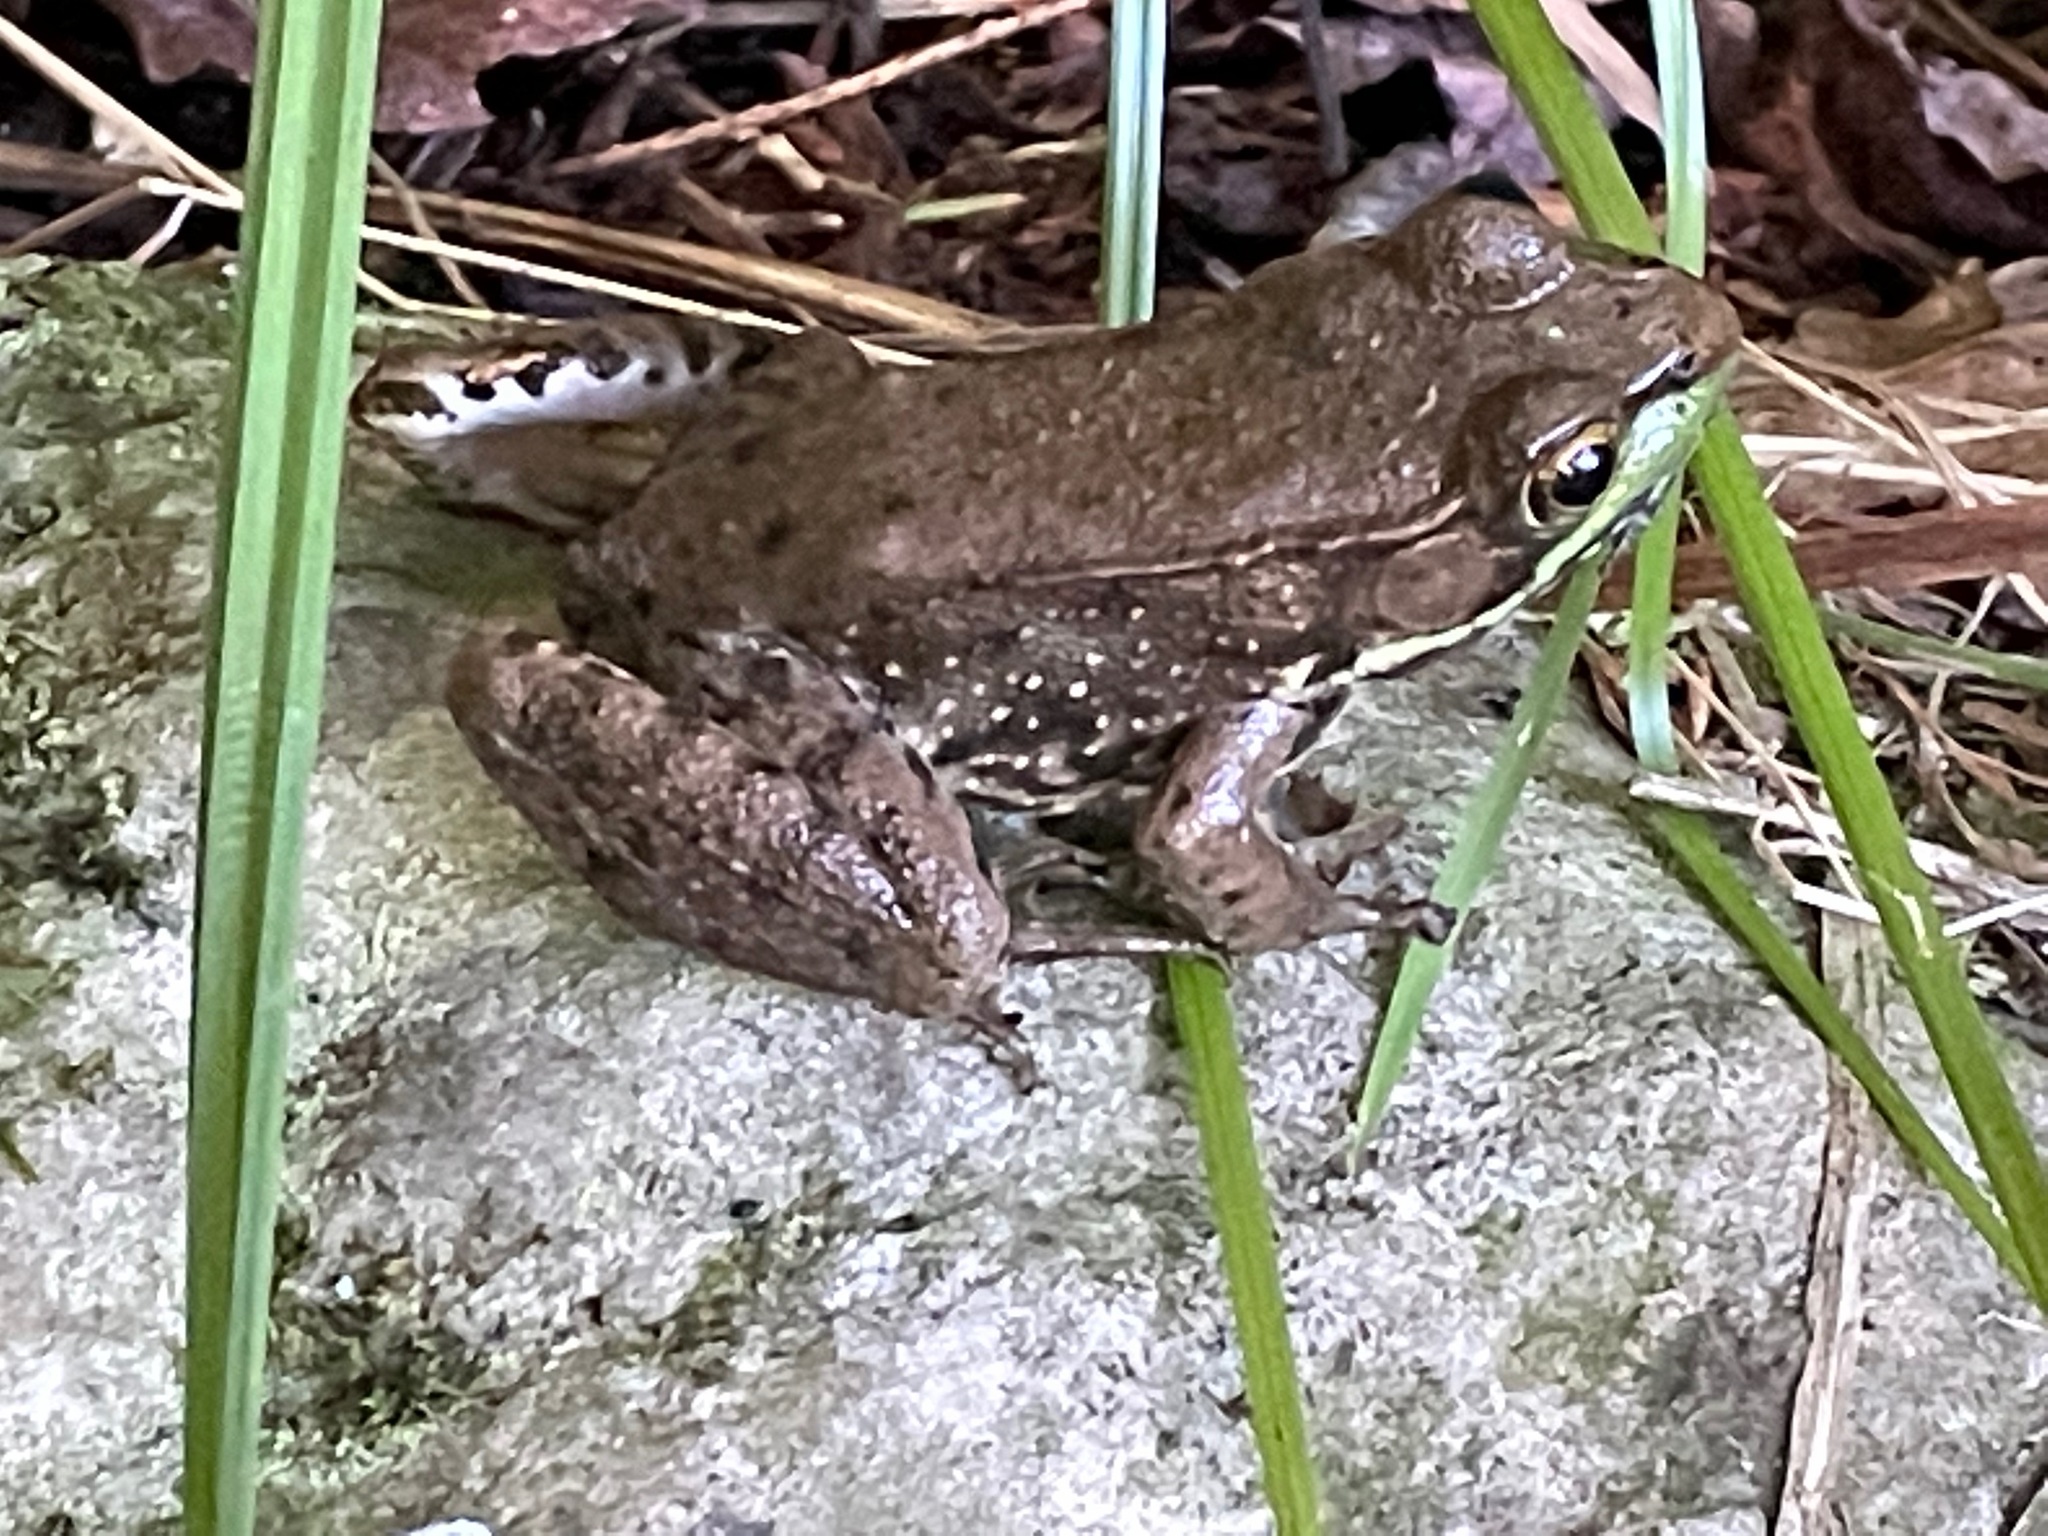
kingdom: Animalia
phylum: Chordata
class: Amphibia
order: Anura
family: Ranidae
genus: Lithobates
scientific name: Lithobates clamitans
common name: Green frog
